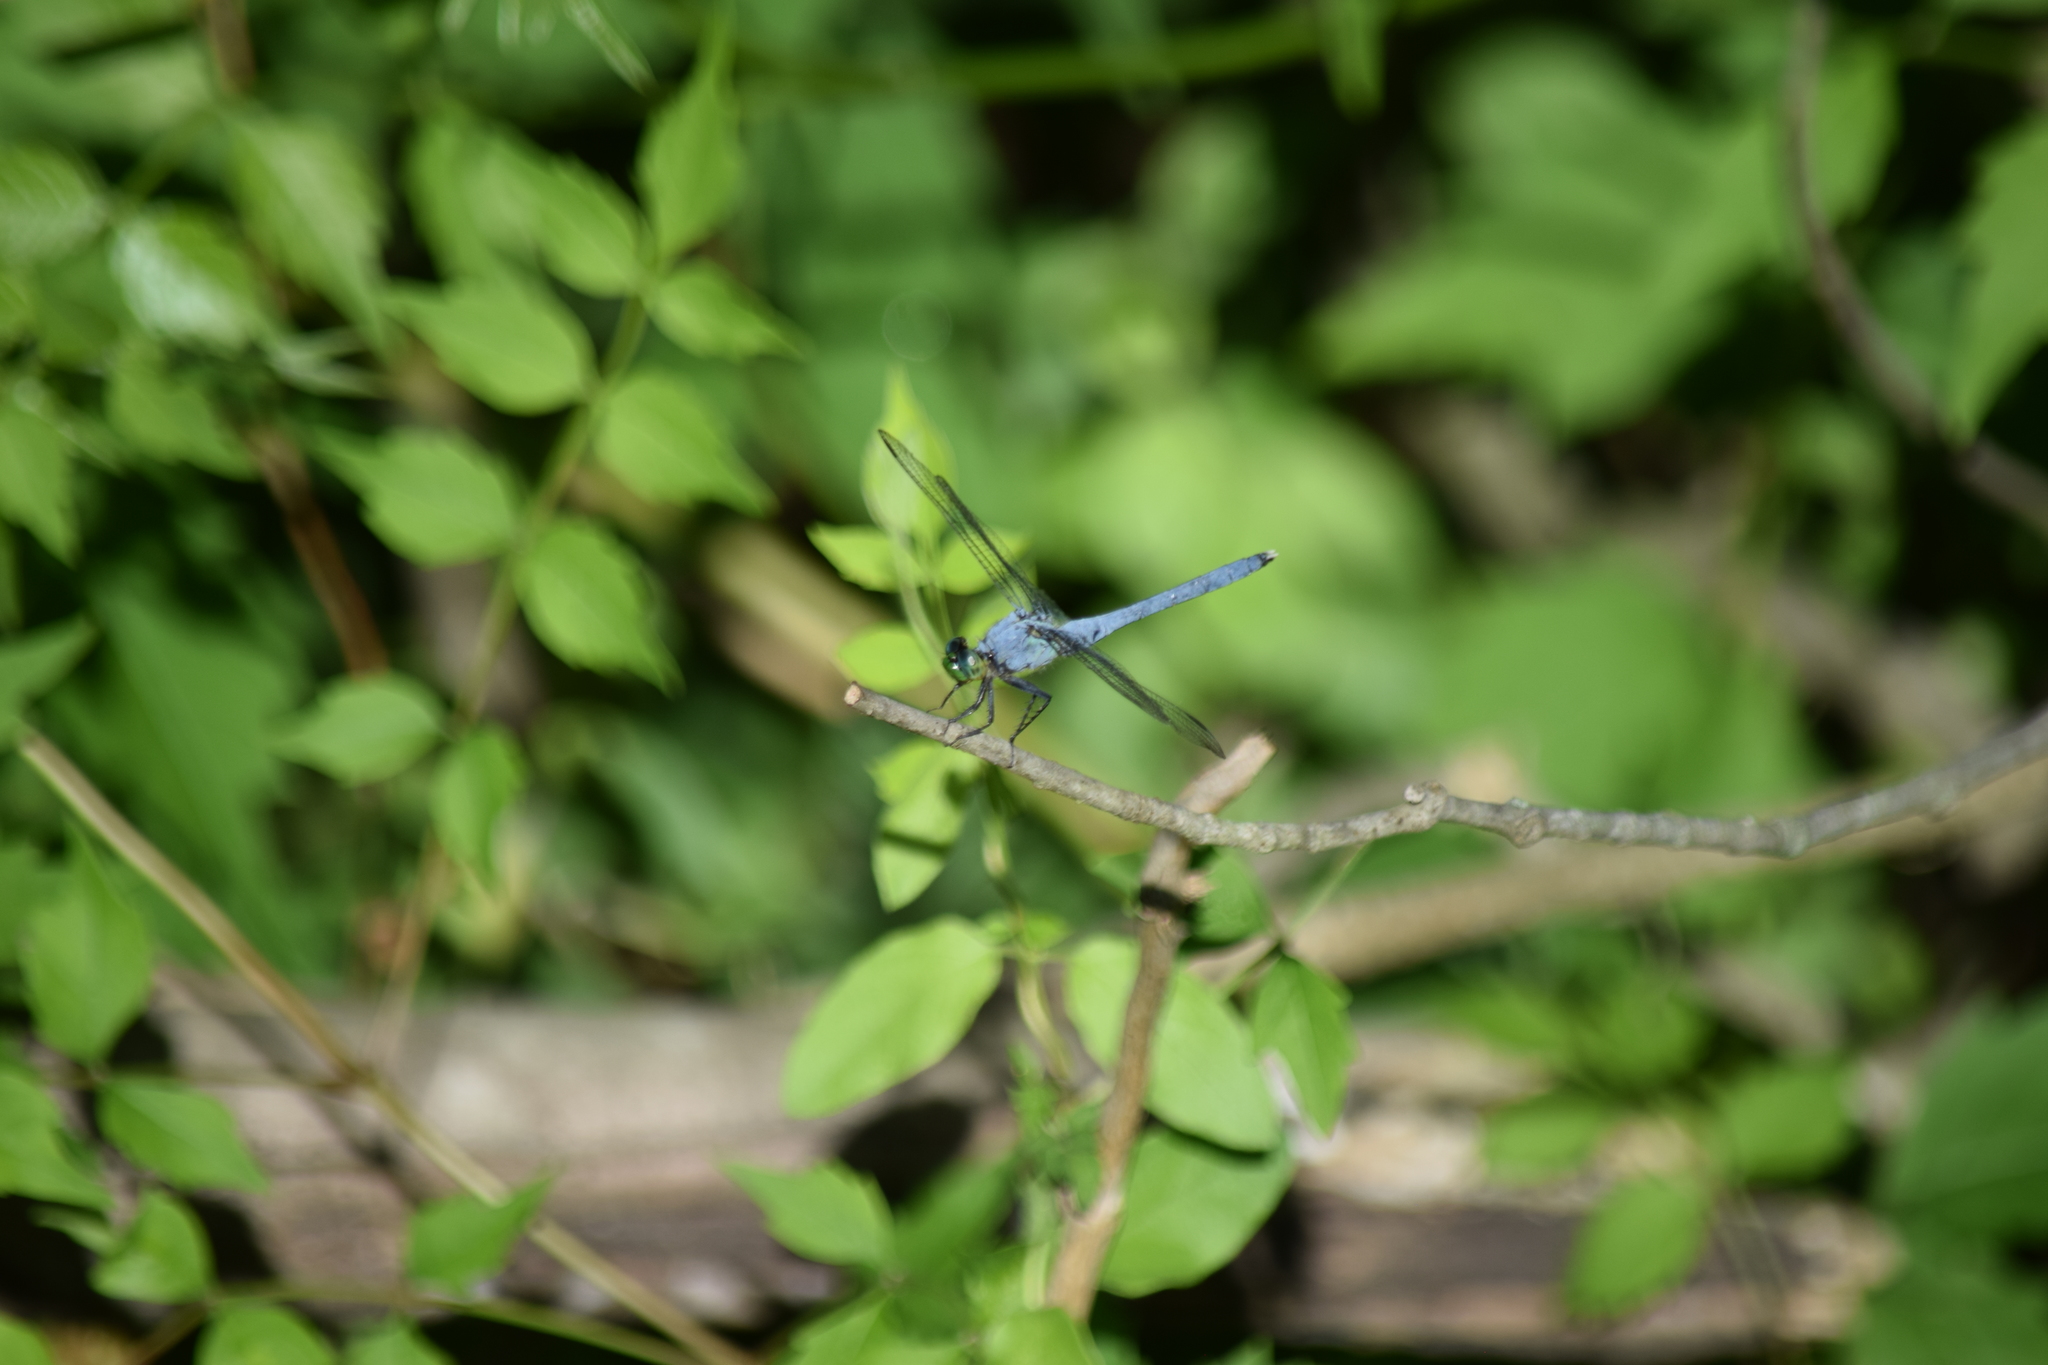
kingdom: Animalia
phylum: Arthropoda
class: Insecta
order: Odonata
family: Libellulidae
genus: Erythemis
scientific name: Erythemis simplicicollis
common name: Eastern pondhawk
